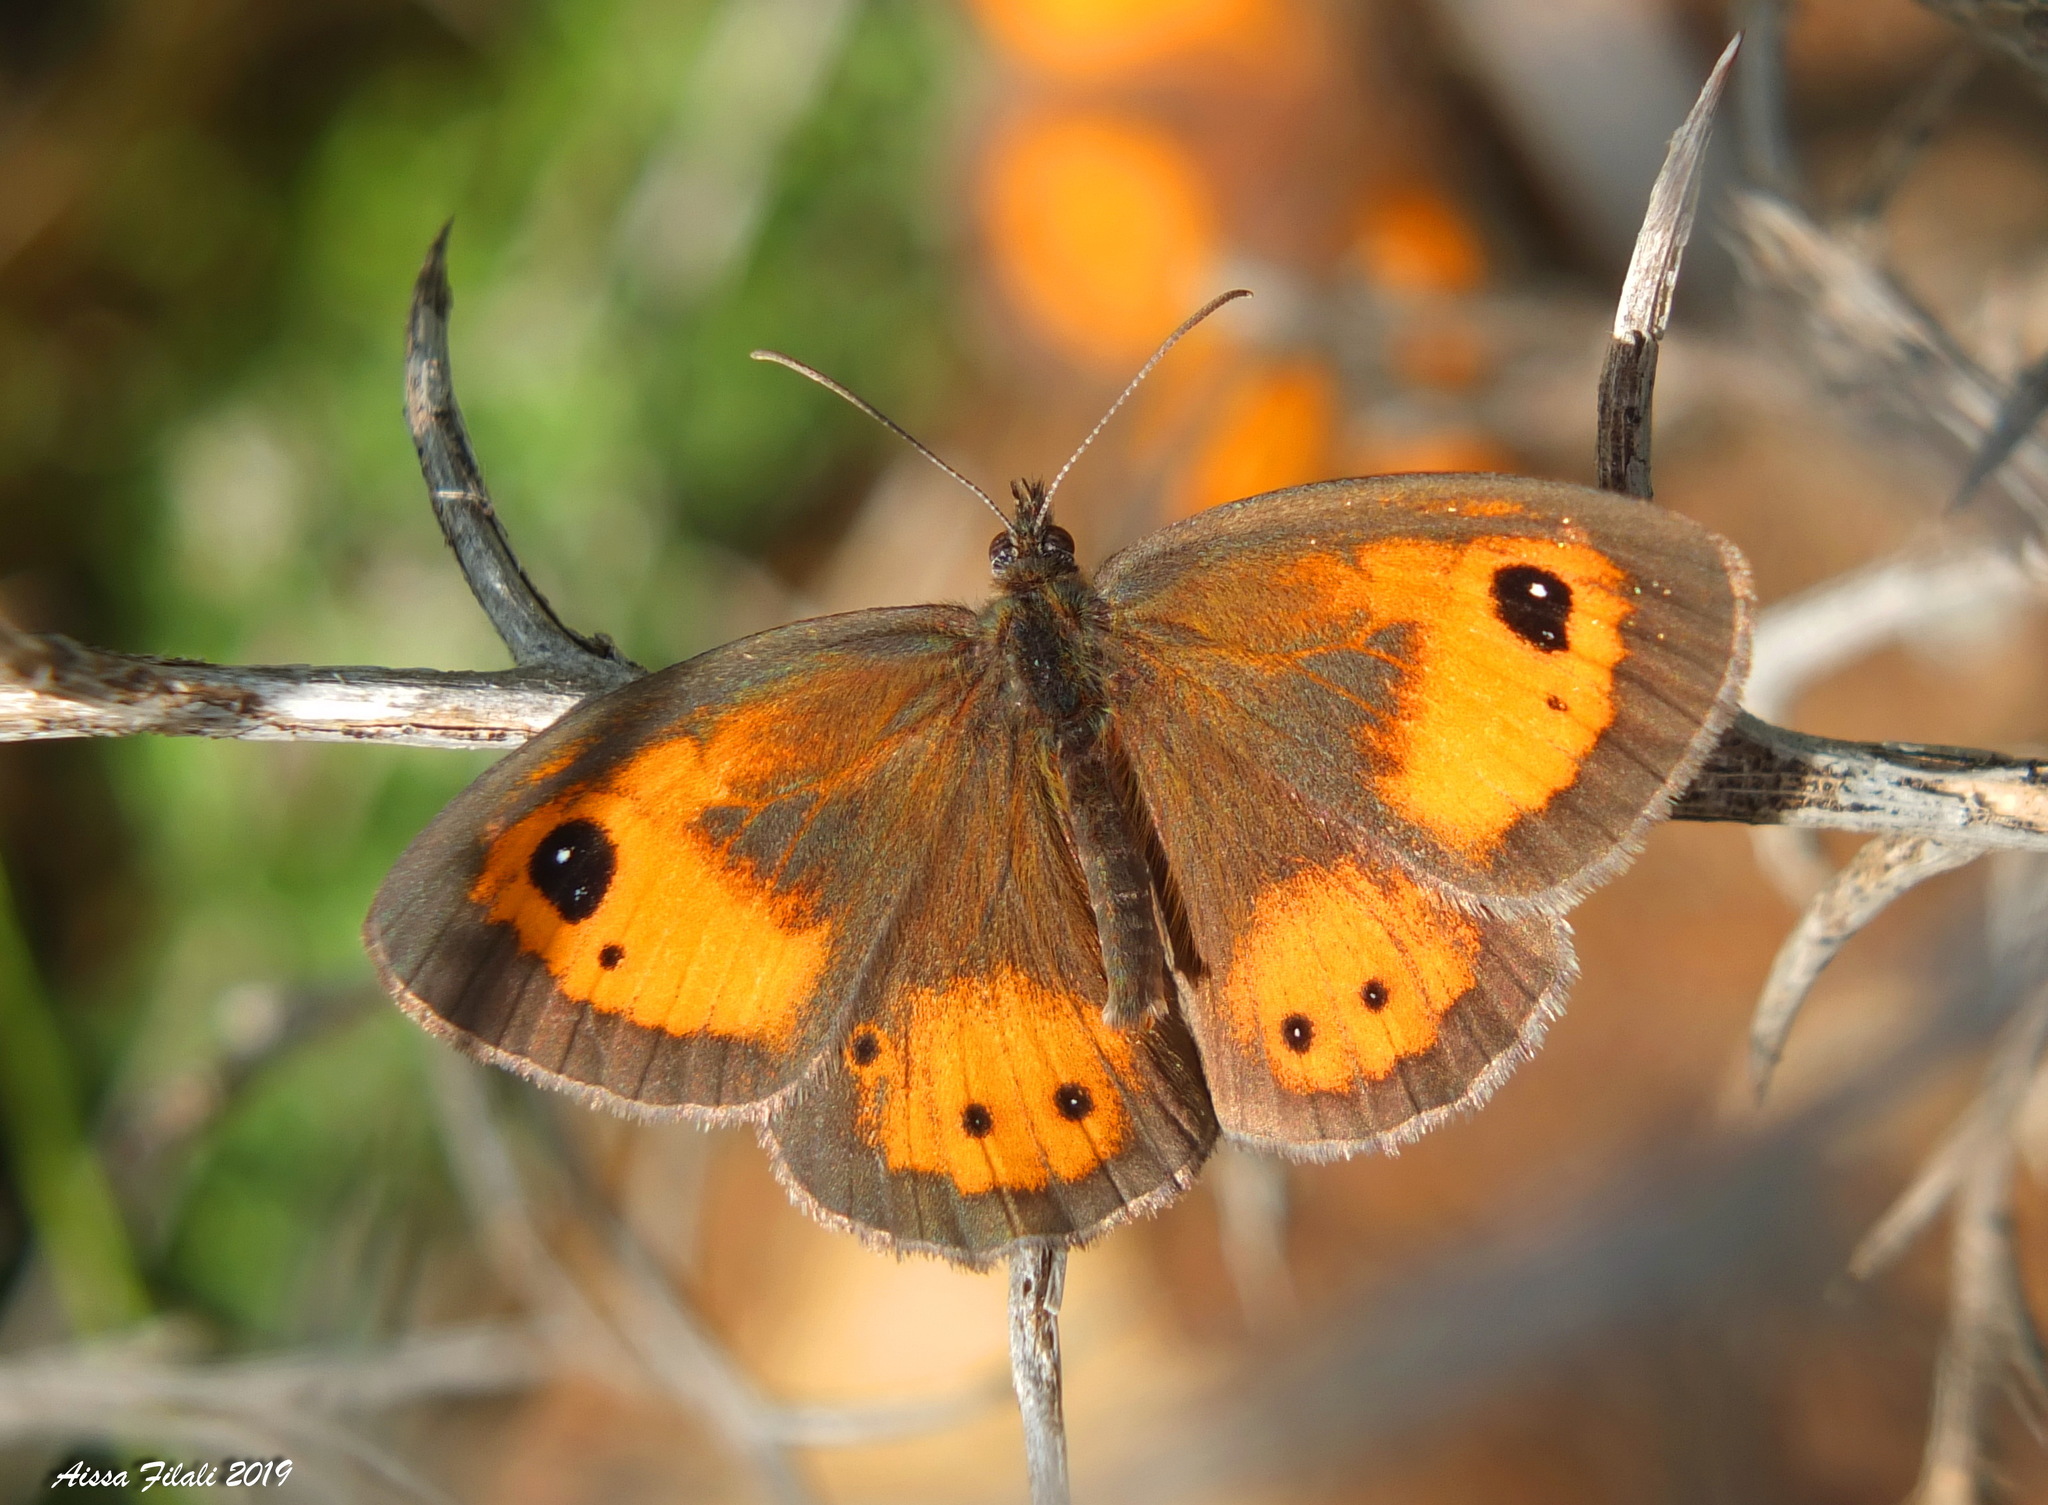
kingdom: Animalia
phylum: Arthropoda
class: Insecta
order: Lepidoptera
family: Nymphalidae
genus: Pyronia
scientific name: Pyronia bathseba
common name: Spanish gatekeeper
